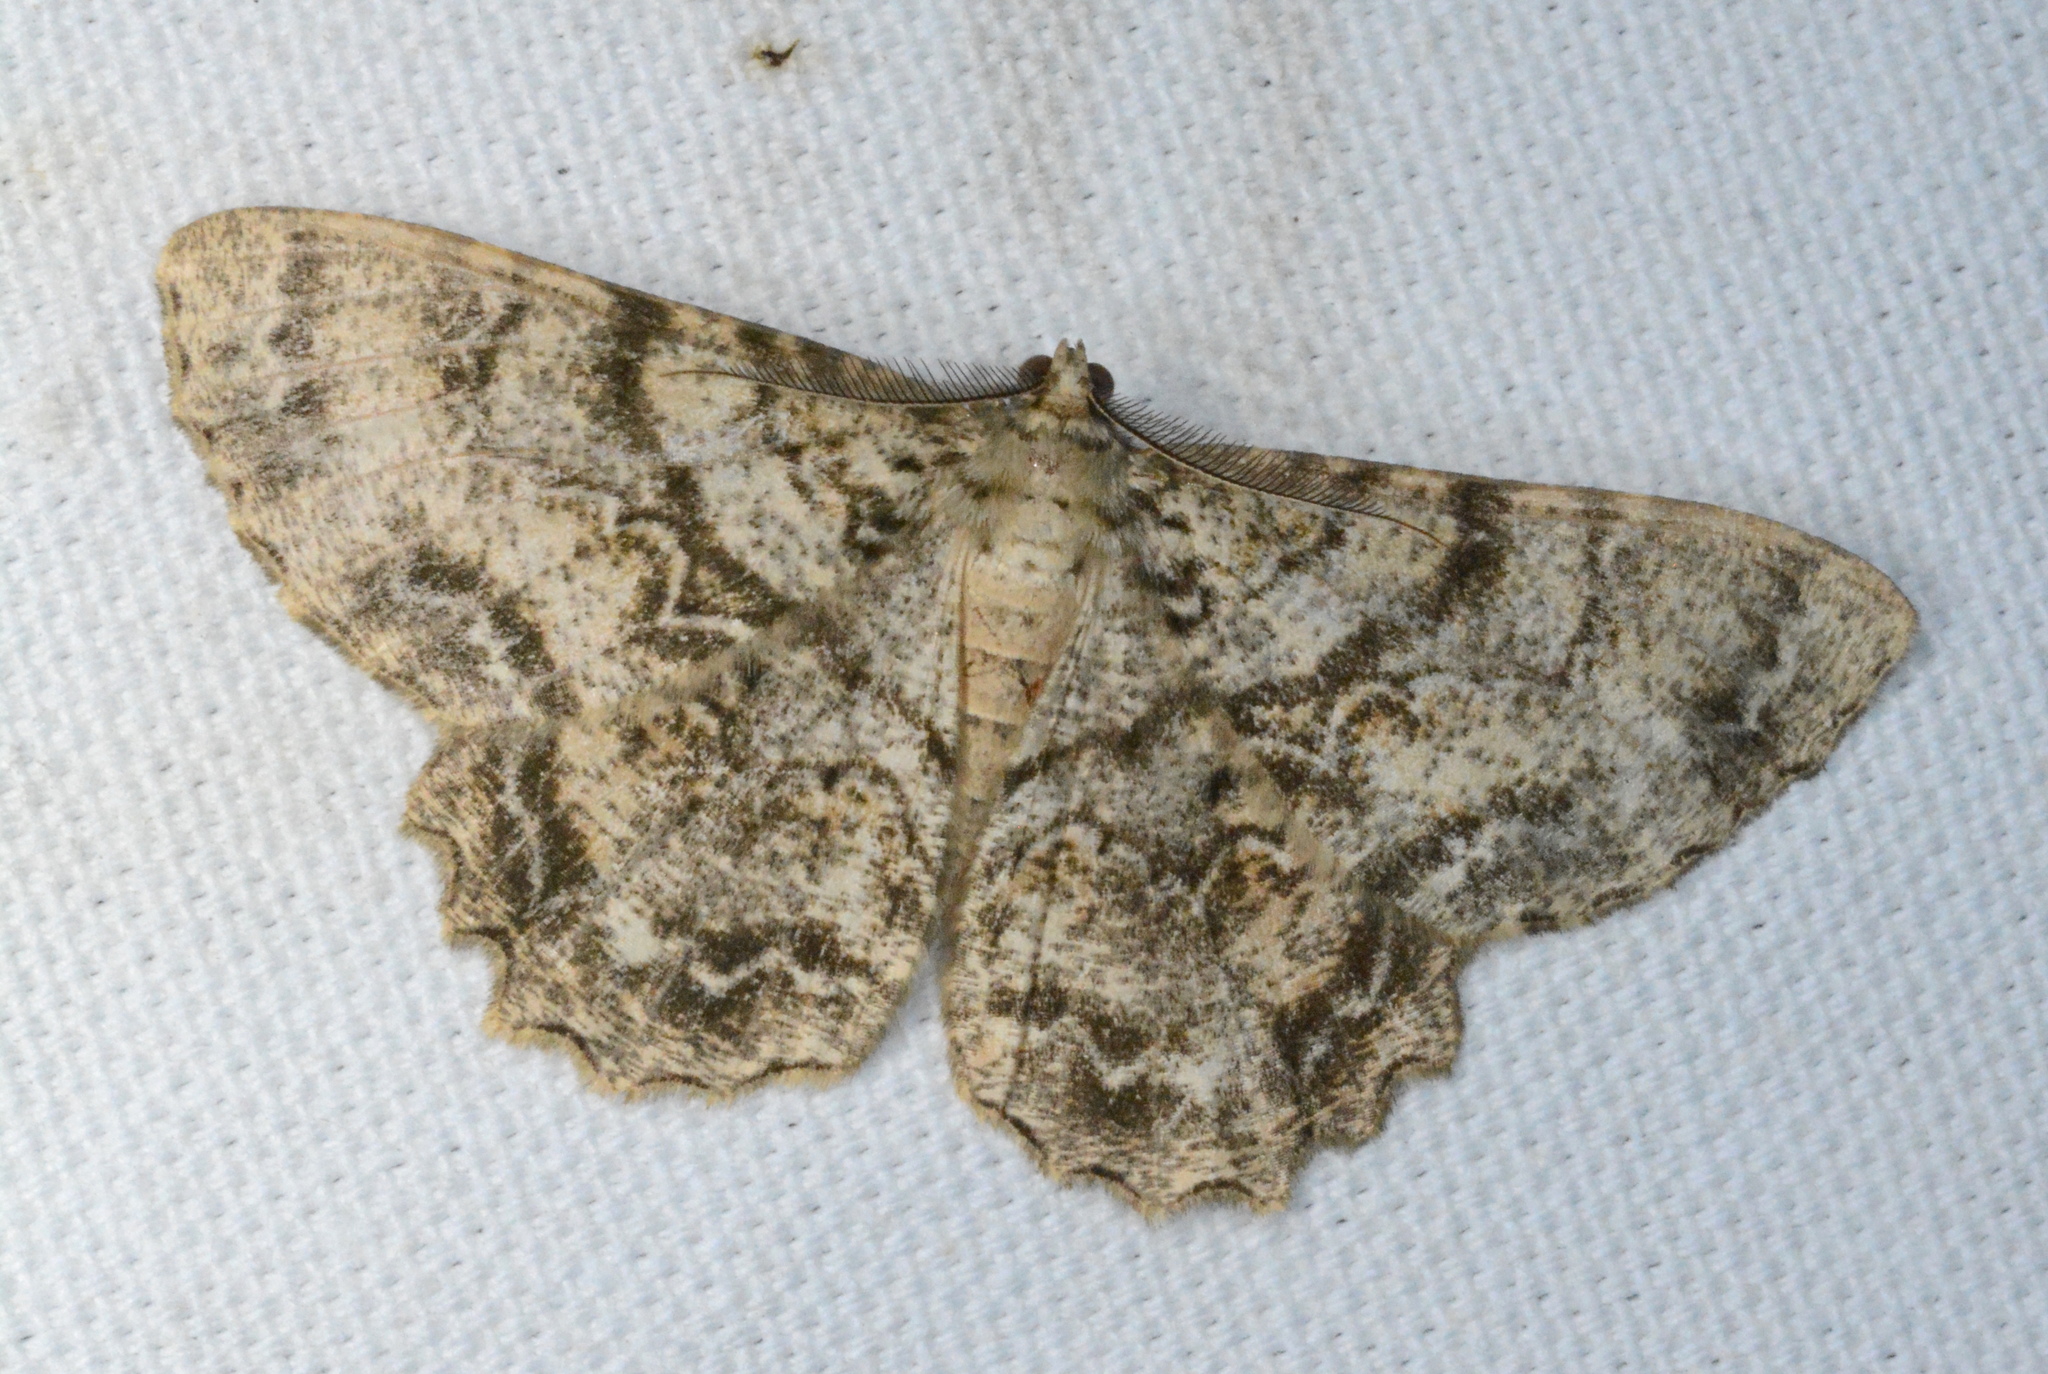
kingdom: Animalia
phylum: Arthropoda
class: Insecta
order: Lepidoptera
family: Geometridae
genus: Epimecis
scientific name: Epimecis hortaria
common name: Tulip-tree beauty
